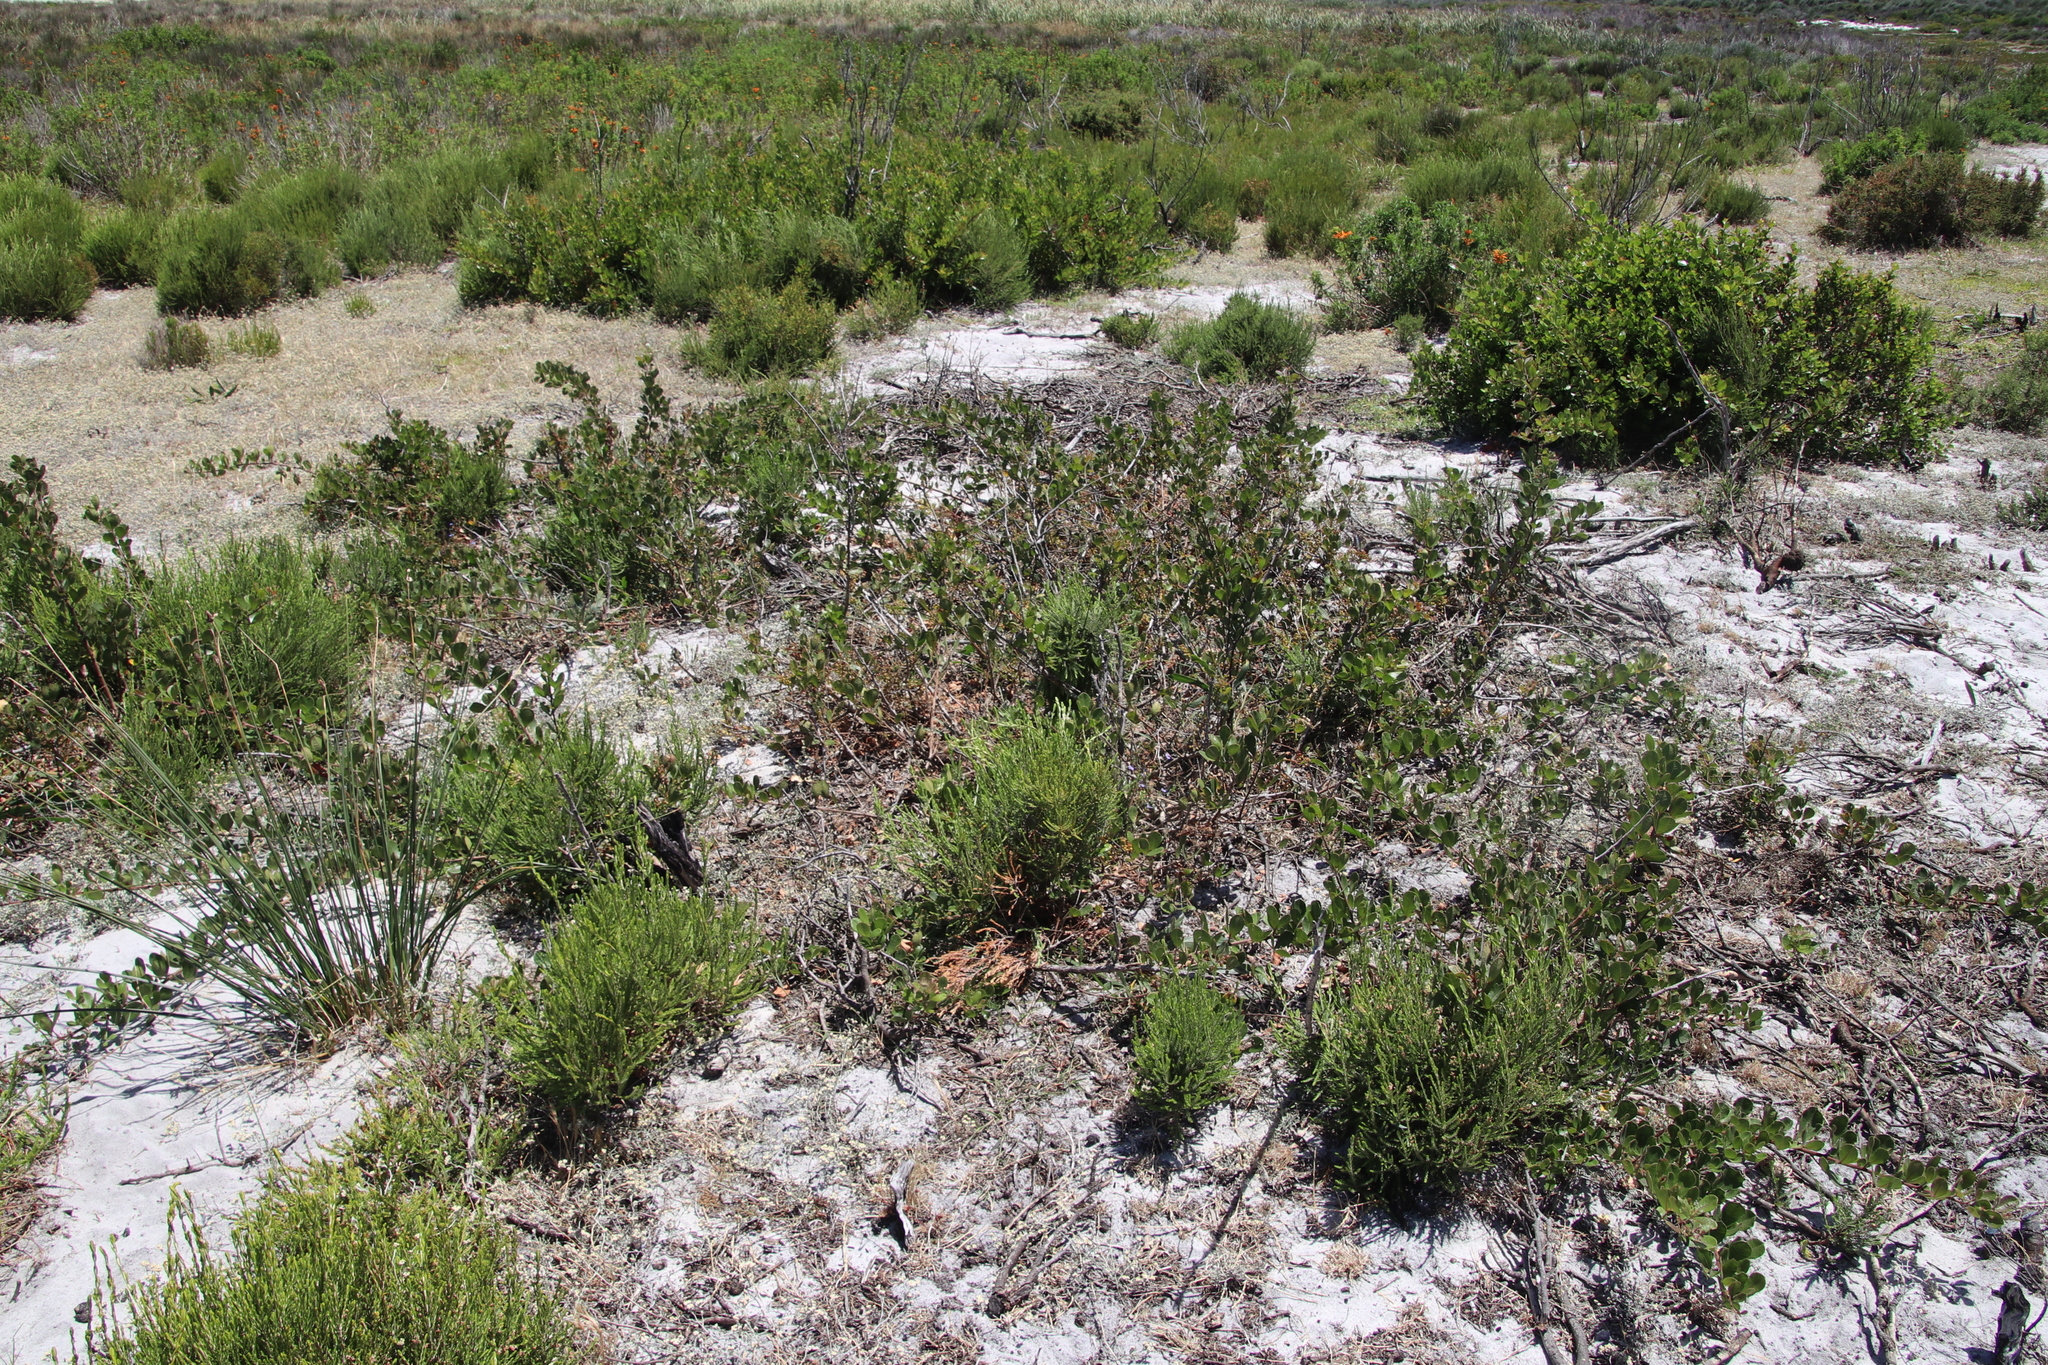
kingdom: Plantae
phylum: Tracheophyta
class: Magnoliopsida
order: Sapindales
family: Anacardiaceae
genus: Searsia
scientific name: Searsia laevigata
